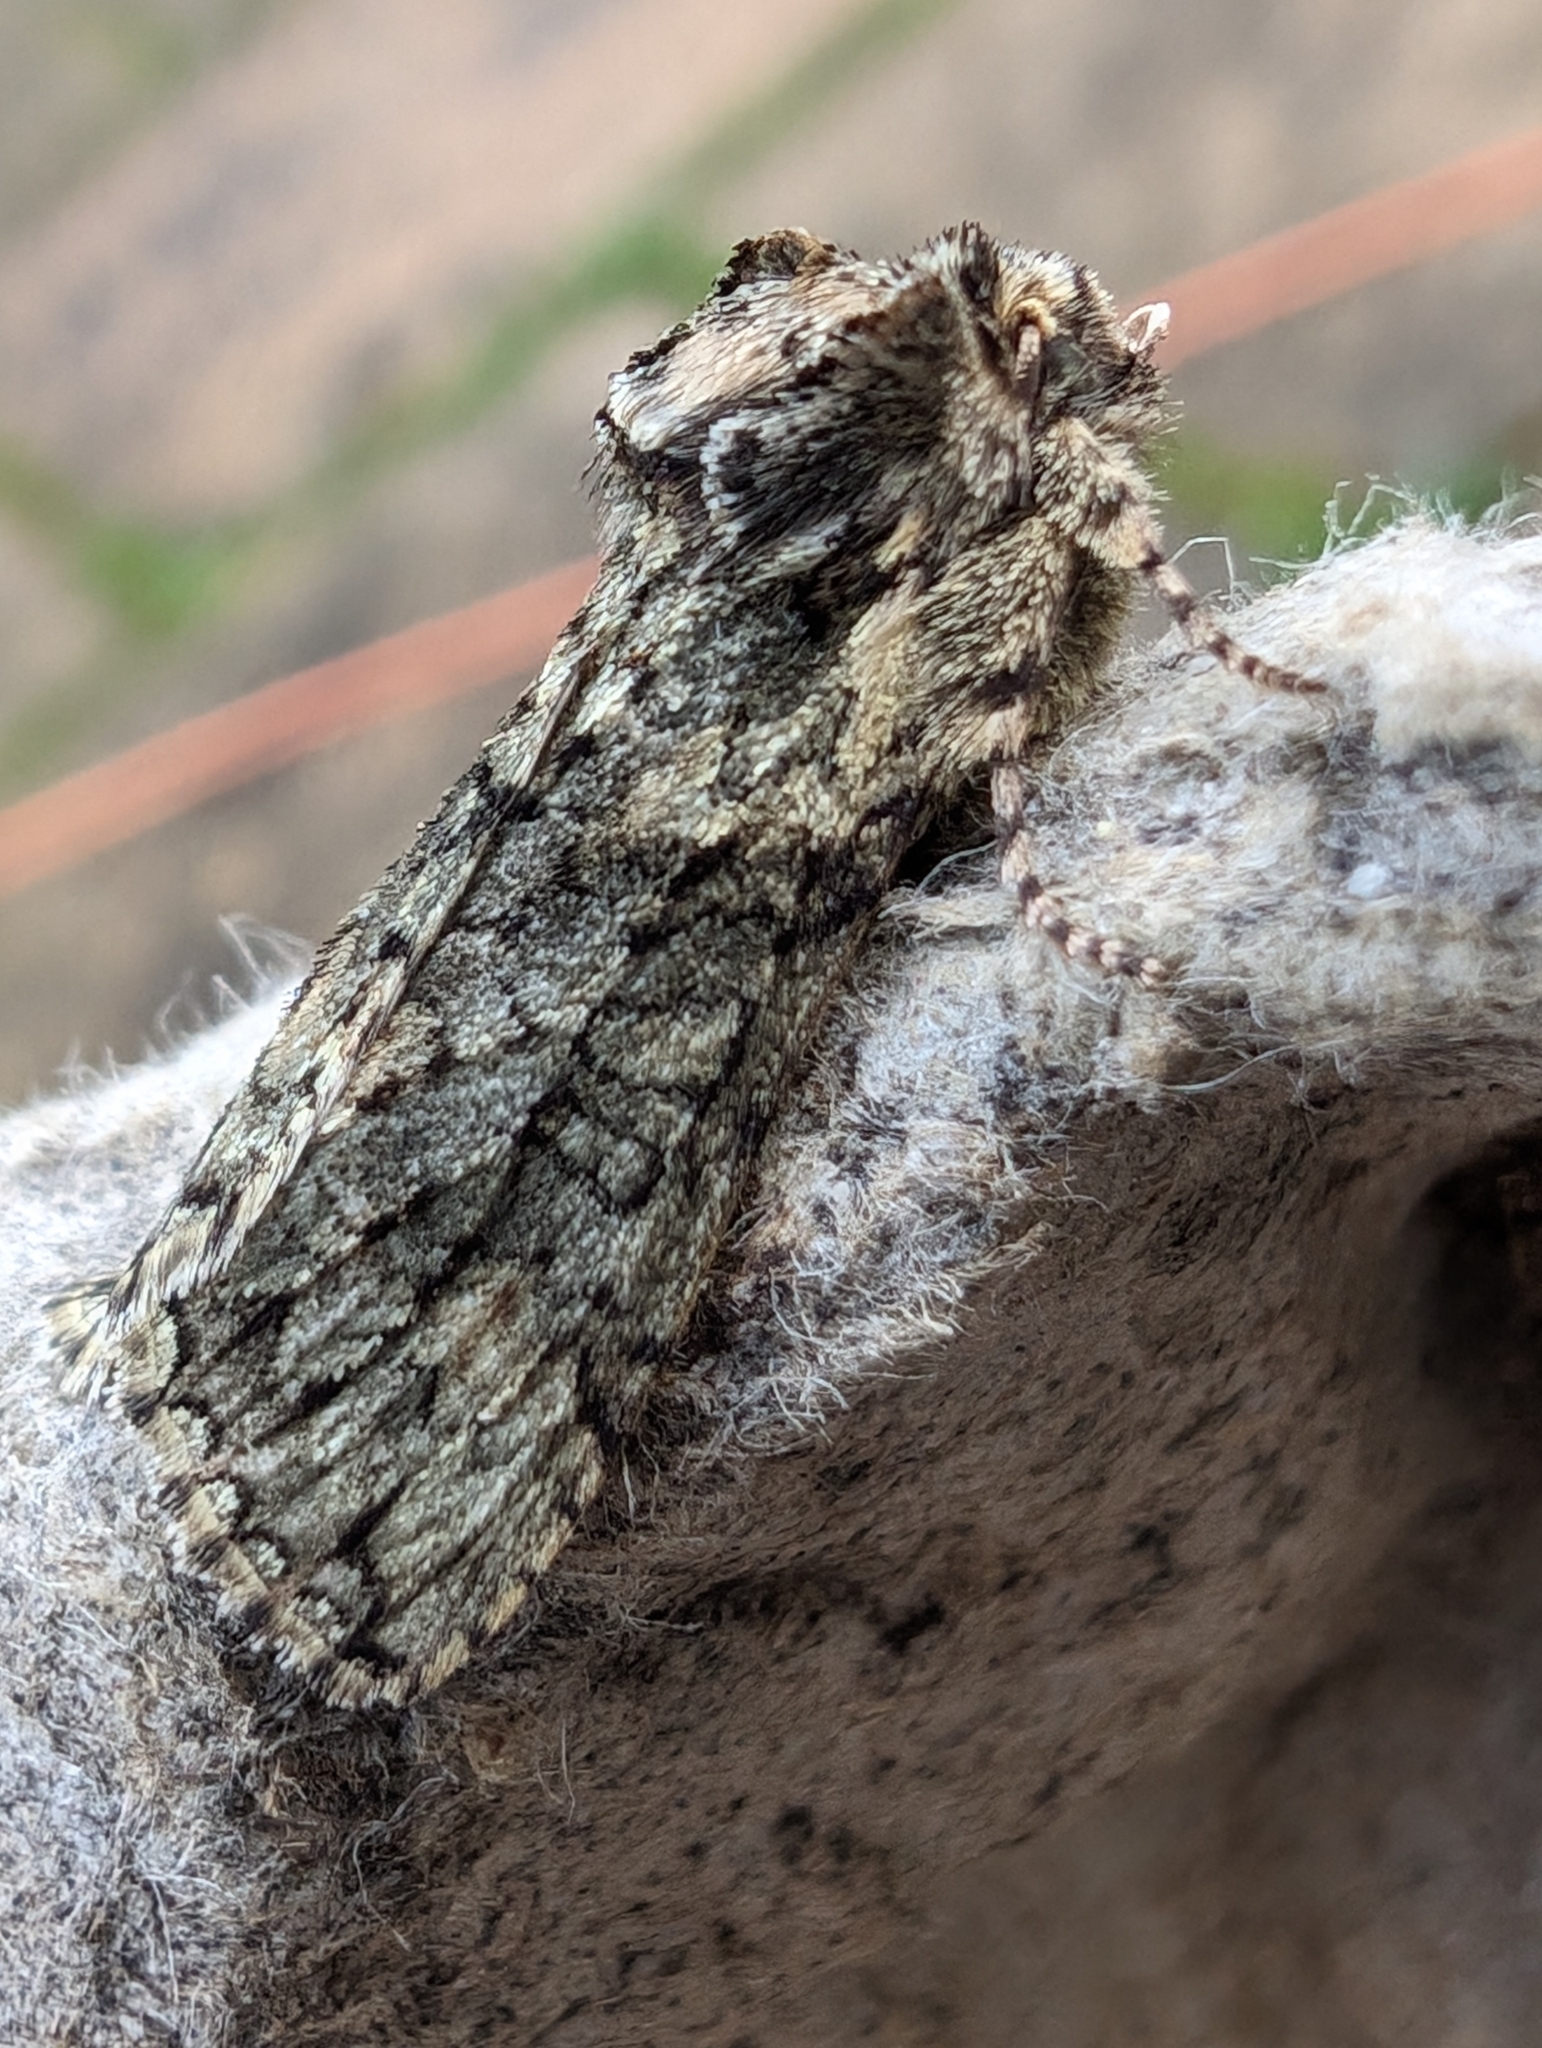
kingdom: Animalia
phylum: Arthropoda
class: Insecta
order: Lepidoptera
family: Drepanidae
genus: Polyploca
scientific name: Polyploca ridens
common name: Frosted green
